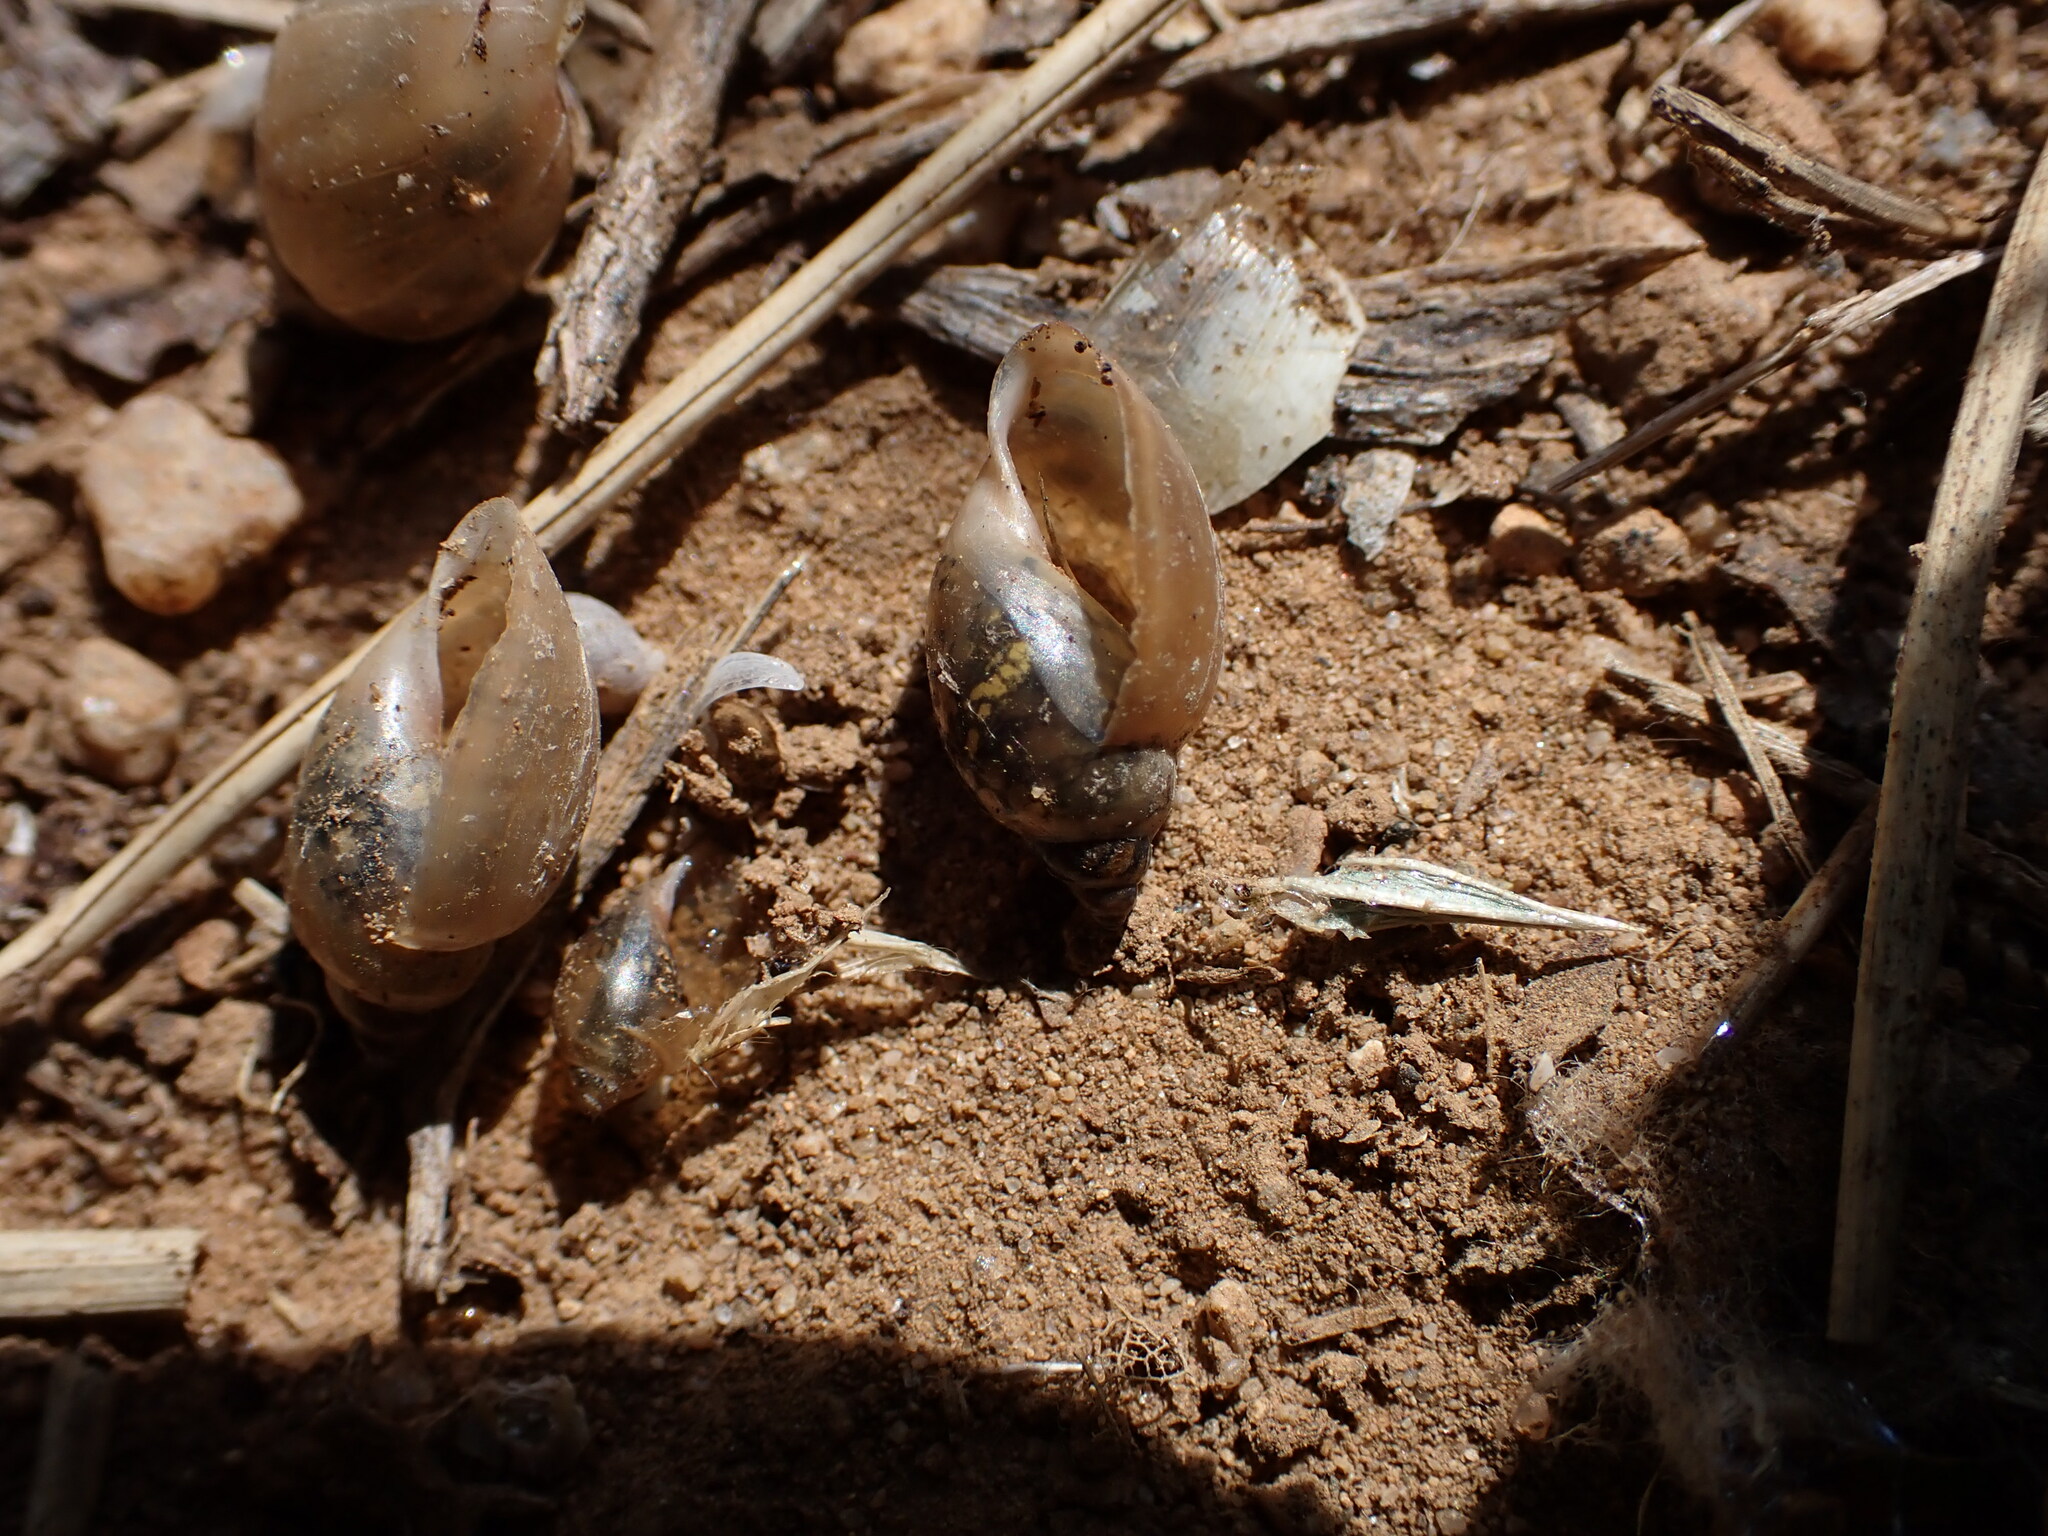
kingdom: Animalia
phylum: Mollusca
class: Gastropoda
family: Physidae
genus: Physella
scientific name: Physella acuta
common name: European physa
